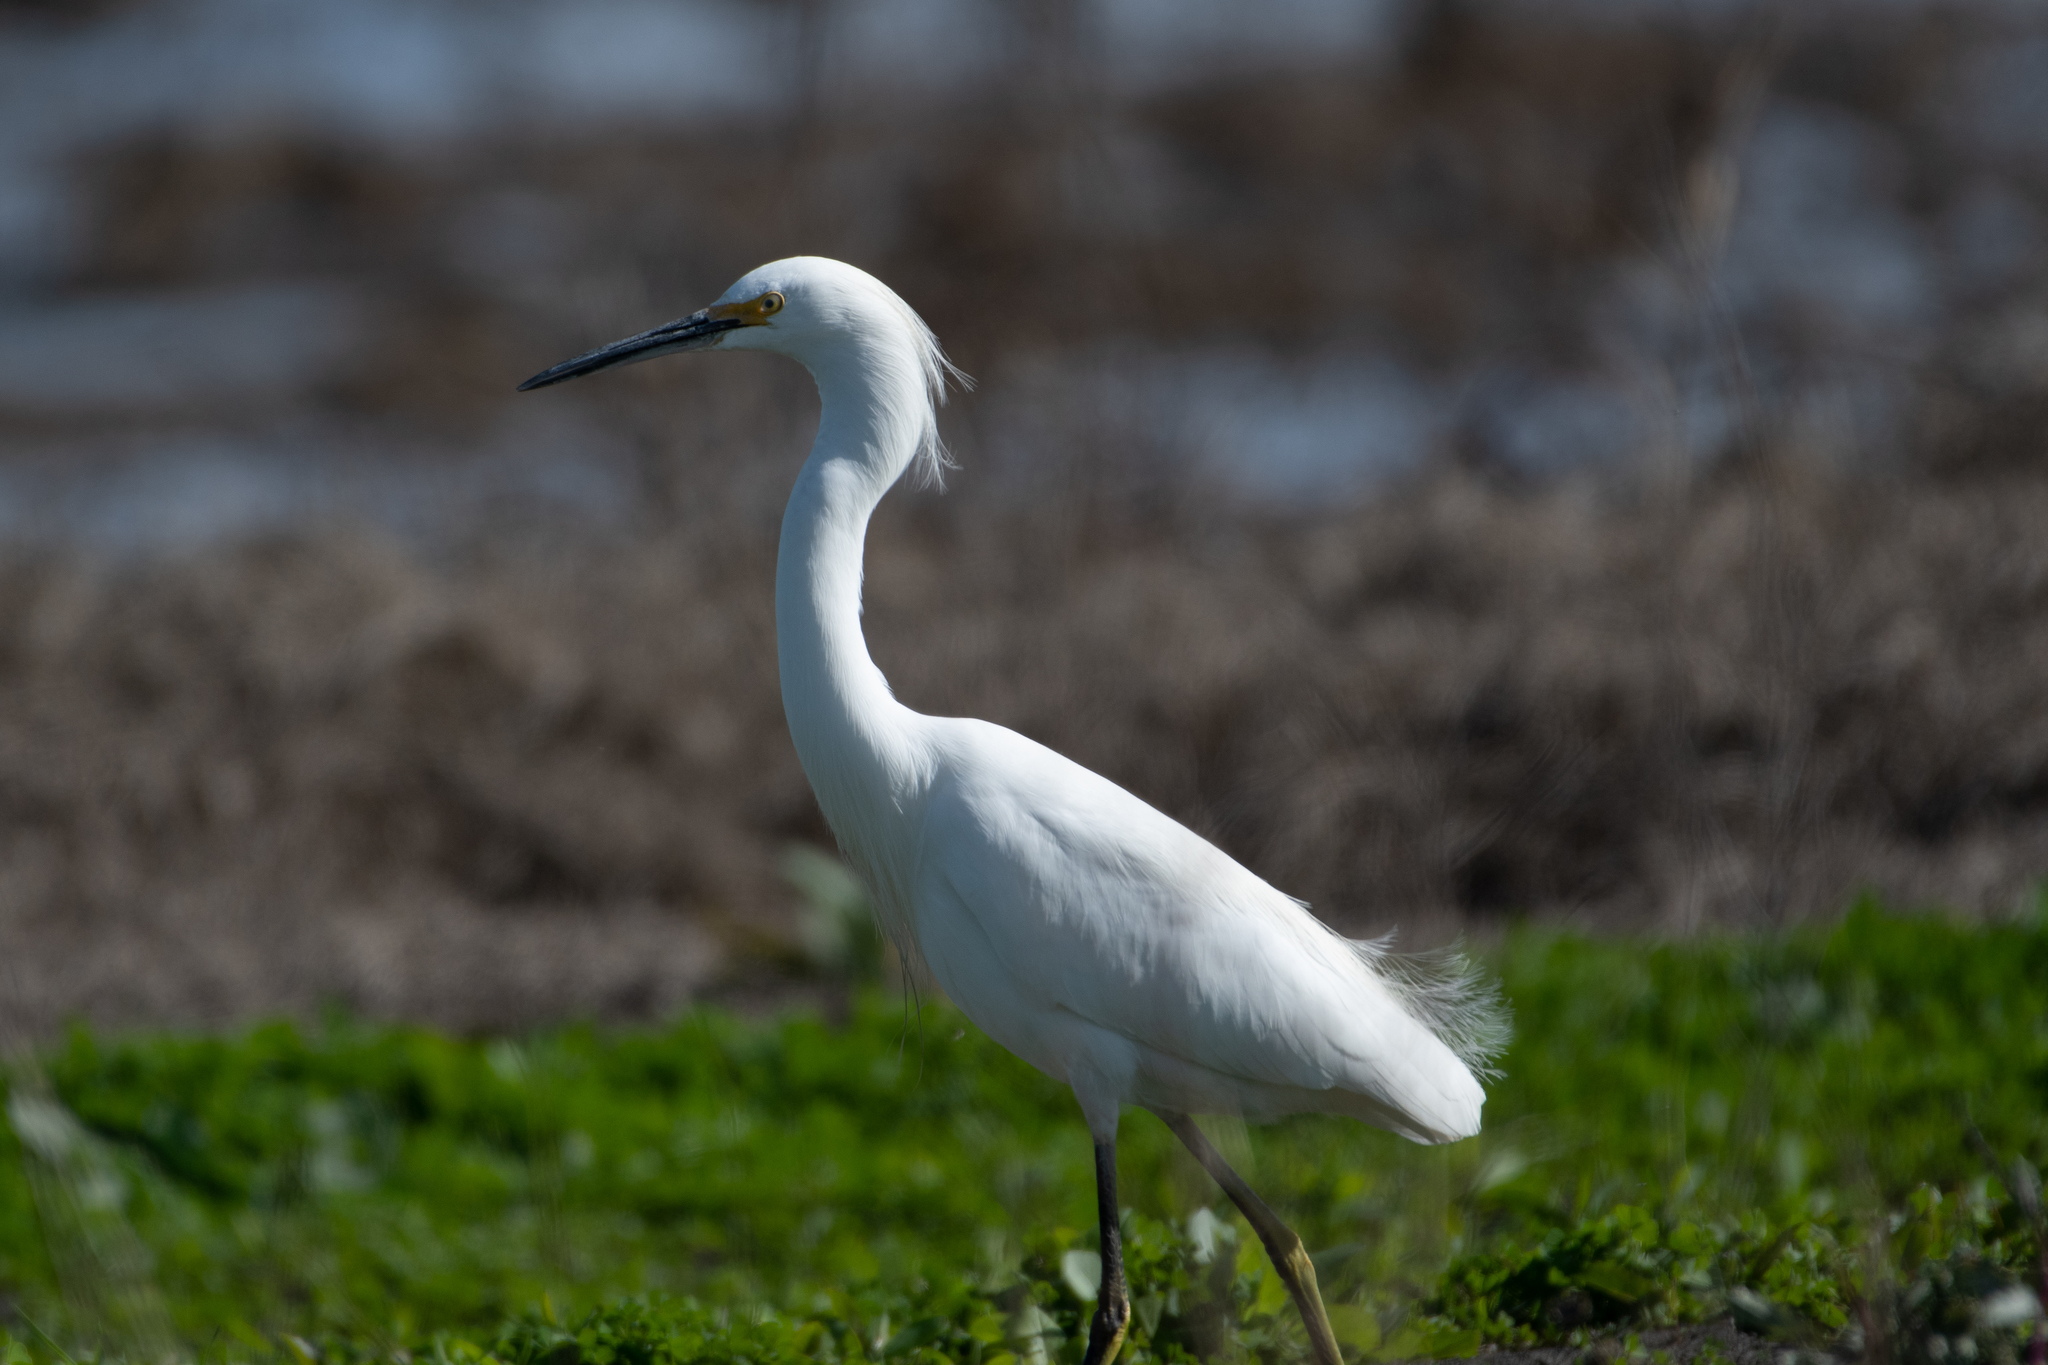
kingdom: Animalia
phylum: Chordata
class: Aves
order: Pelecaniformes
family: Ardeidae
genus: Egretta
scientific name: Egretta thula
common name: Snowy egret
